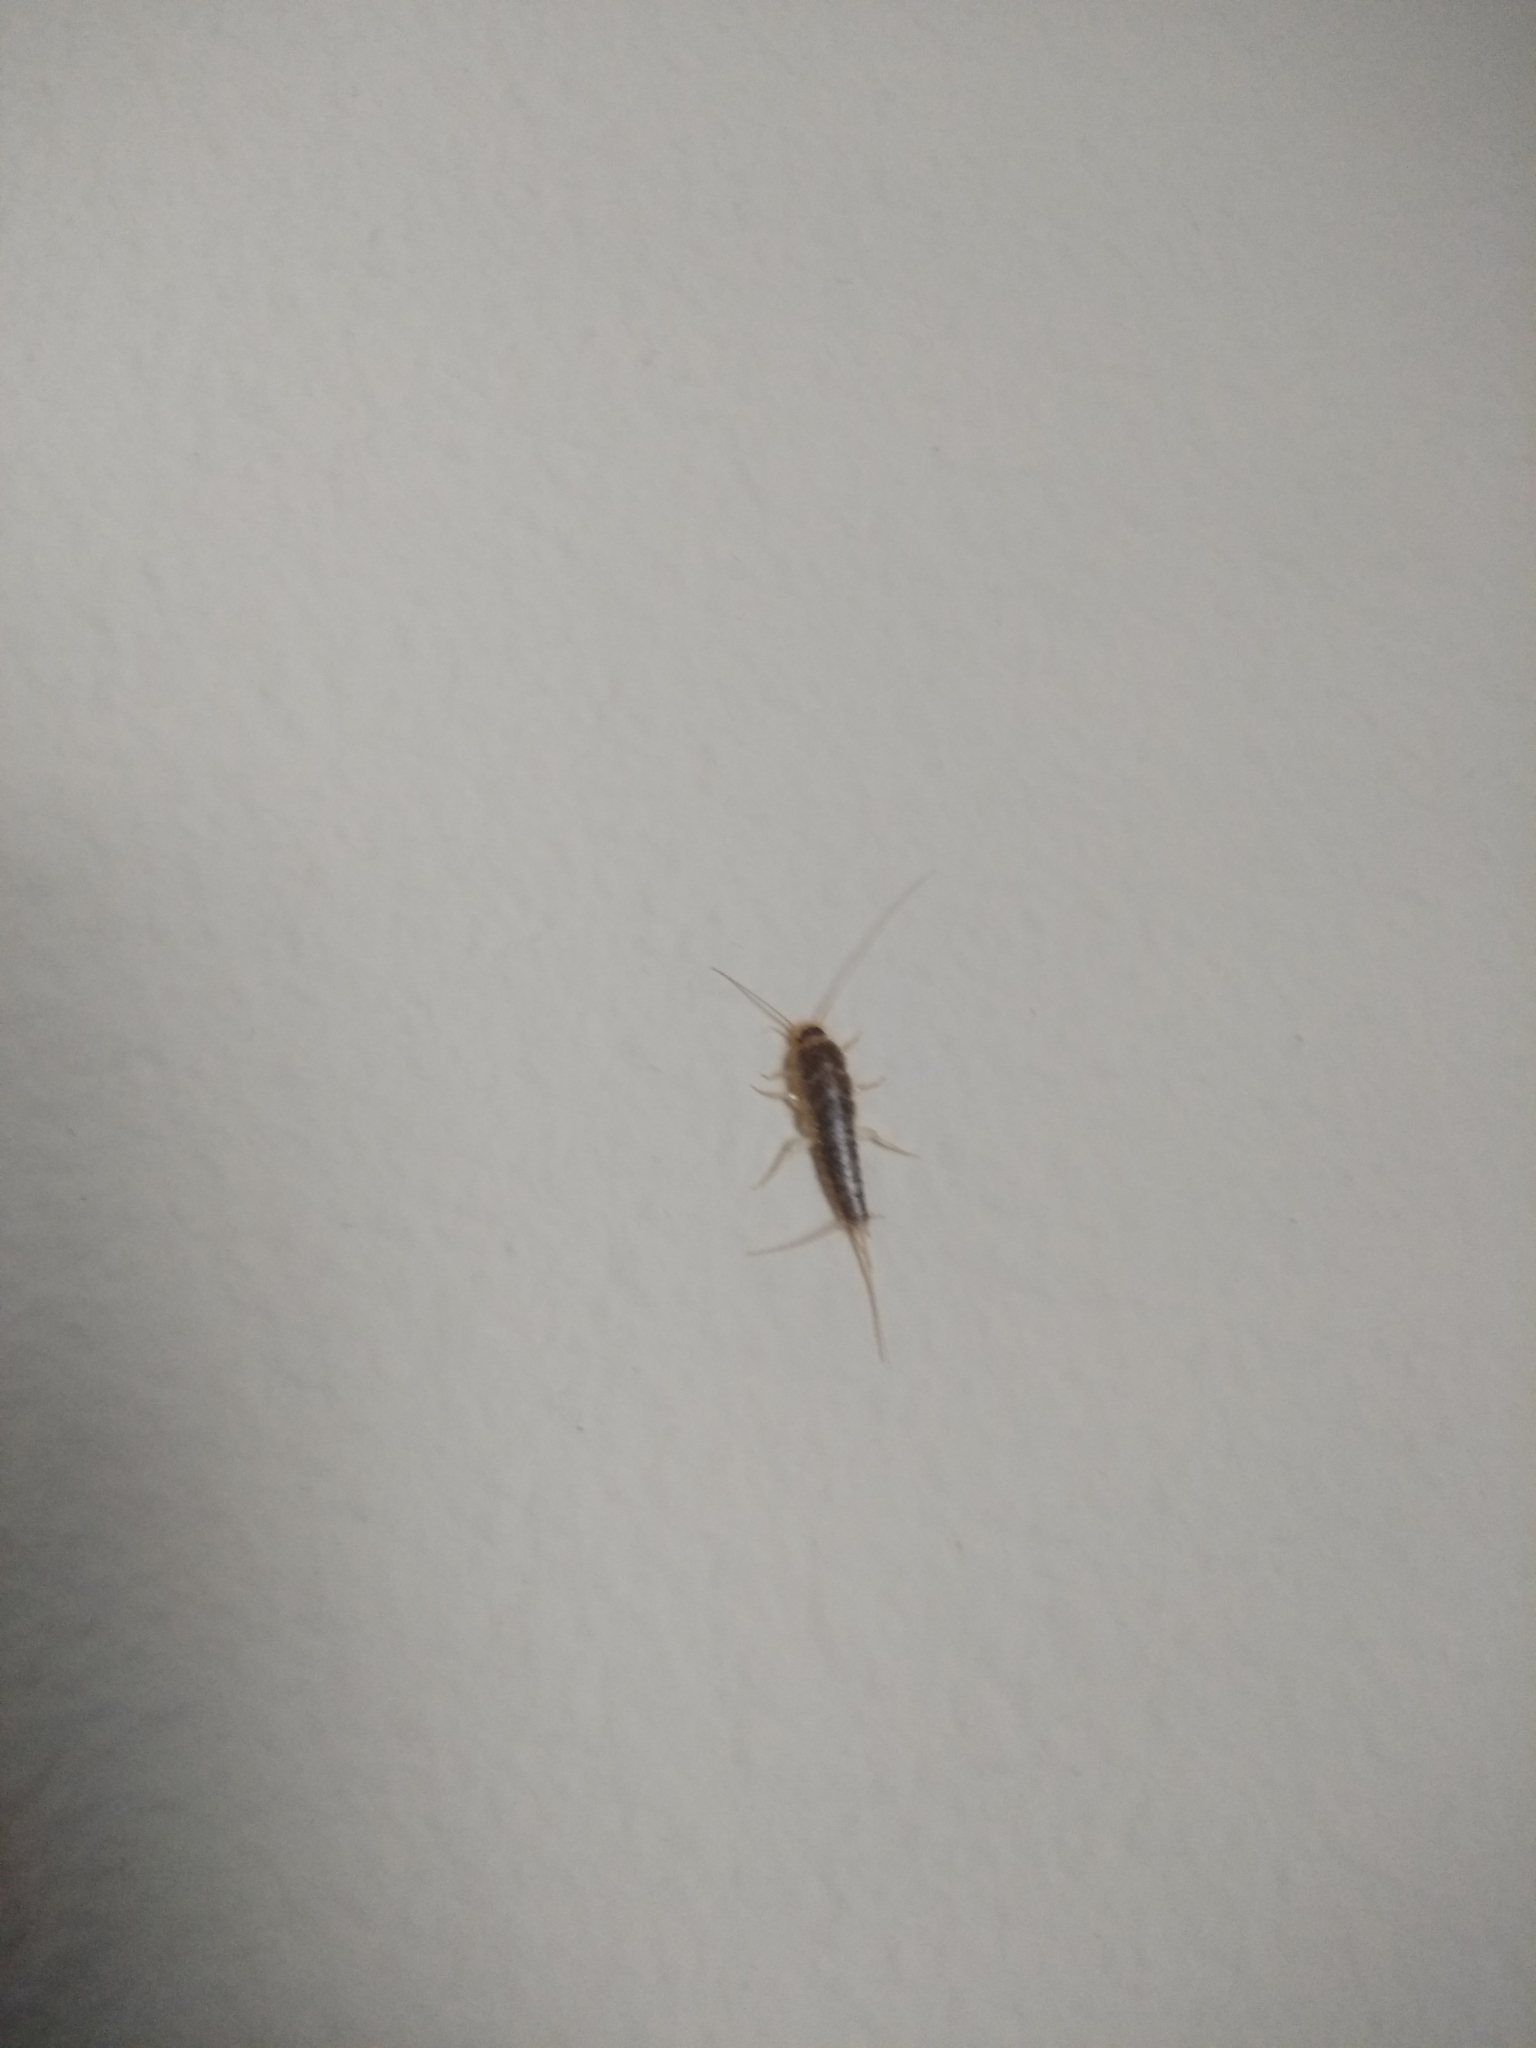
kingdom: Animalia
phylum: Arthropoda
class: Insecta
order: Zygentoma
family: Lepismatidae
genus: Ctenolepisma
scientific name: Ctenolepisma longicaudatum
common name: Silverfish
